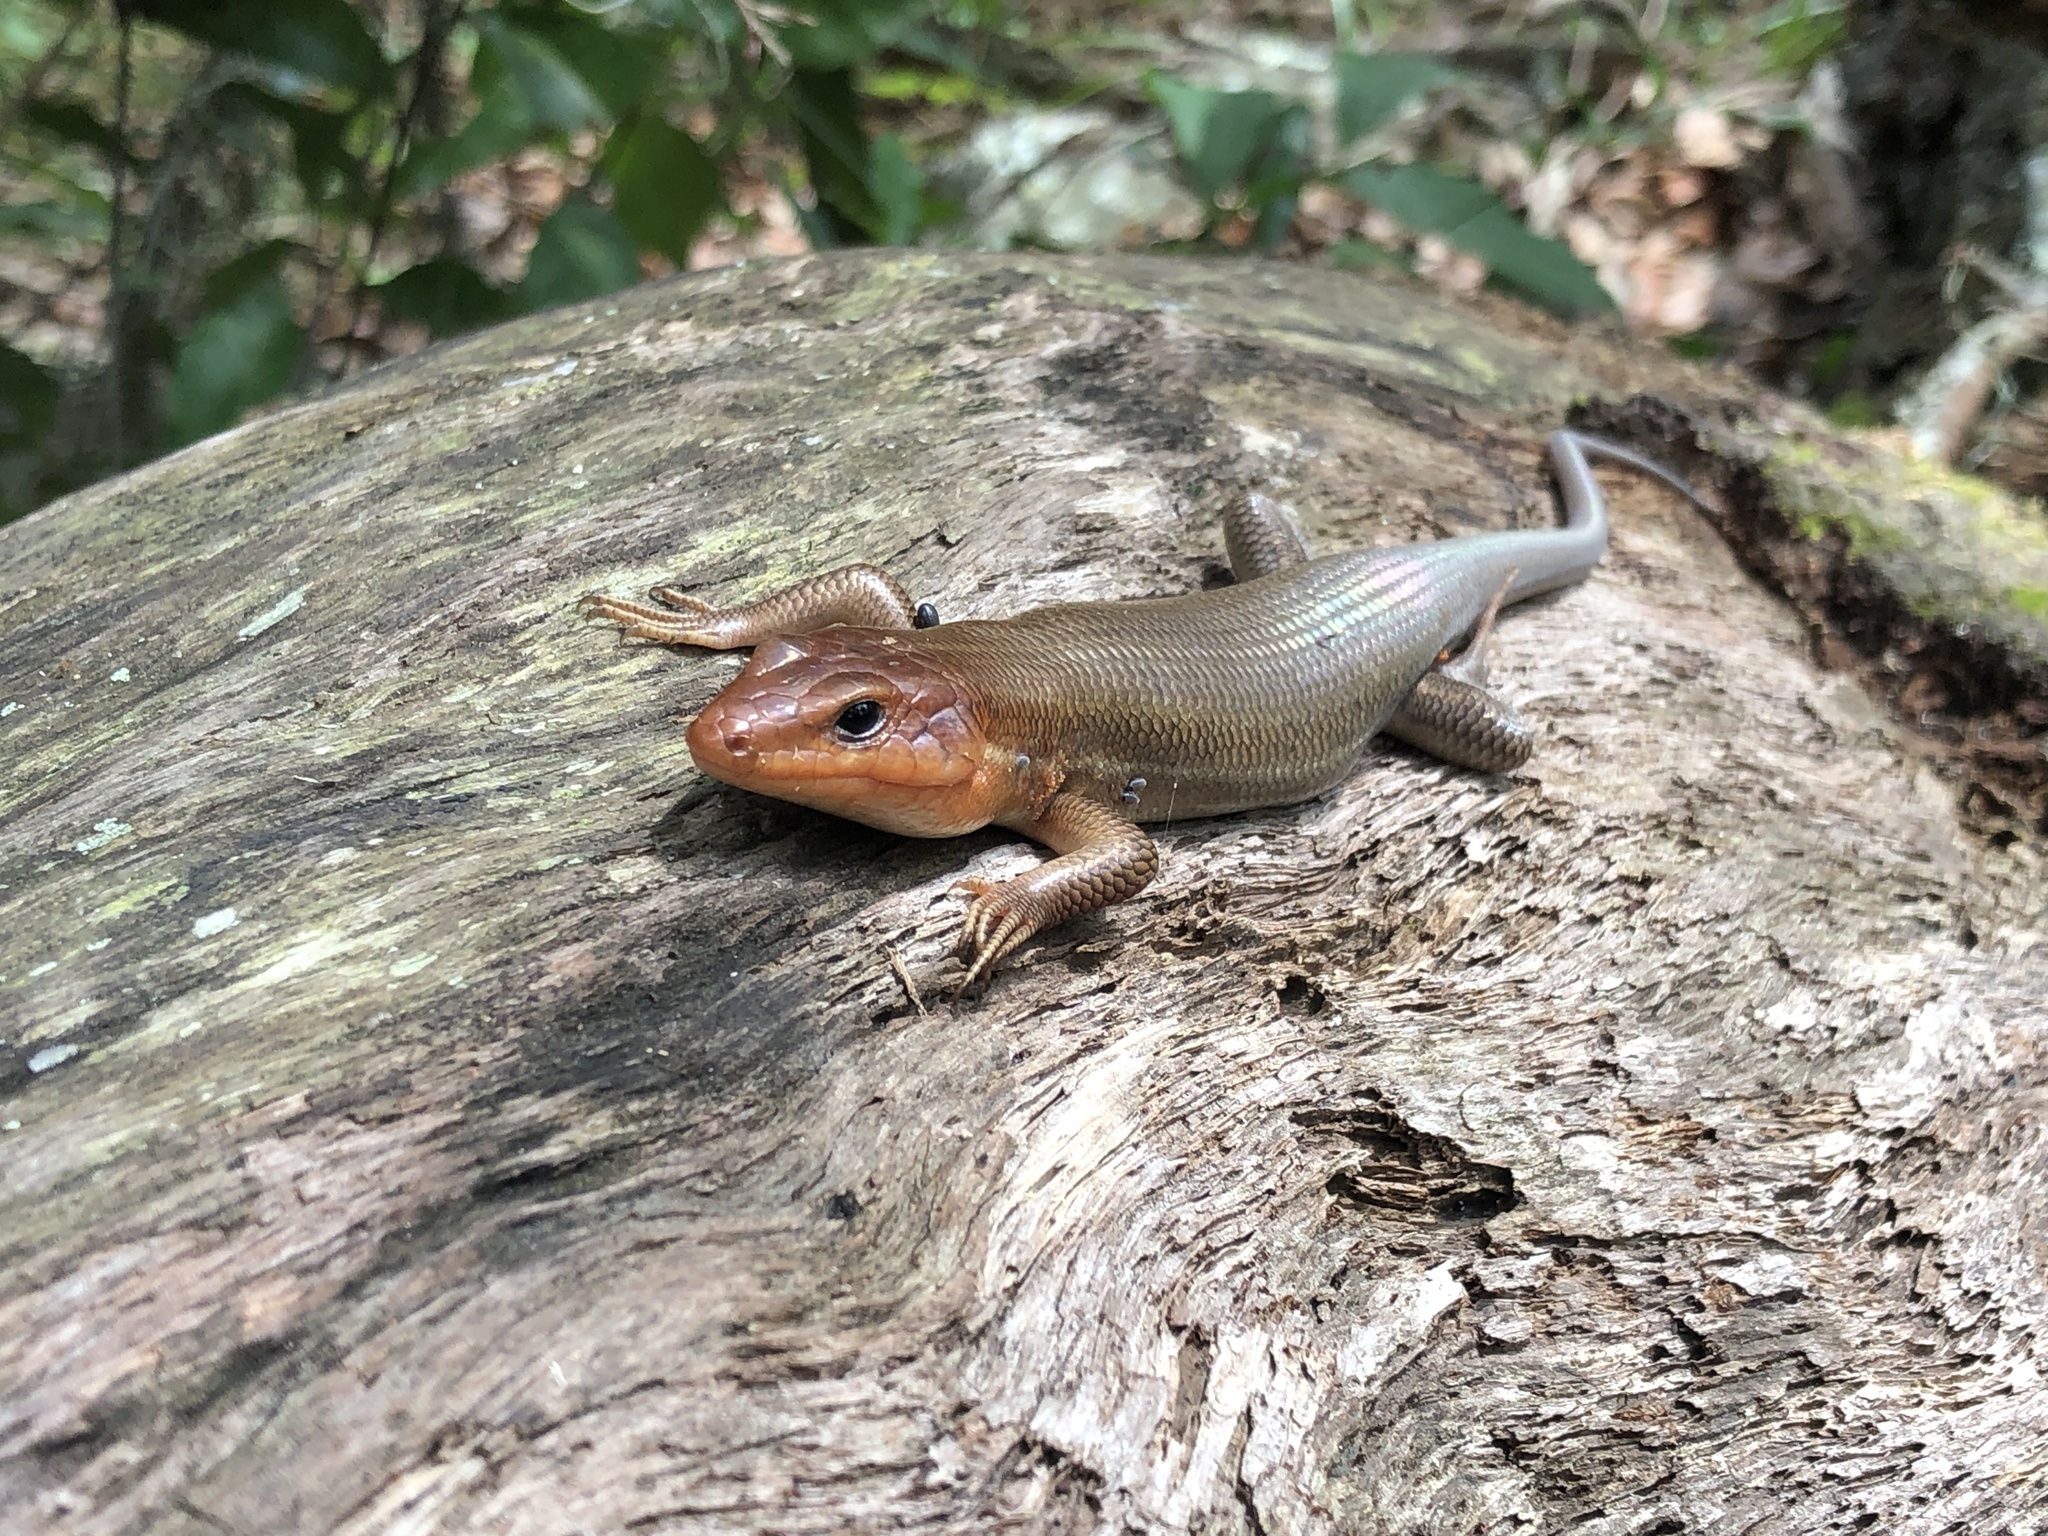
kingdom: Animalia
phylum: Chordata
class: Squamata
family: Scincidae
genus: Plestiodon
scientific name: Plestiodon laticeps
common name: Broadhead skink
